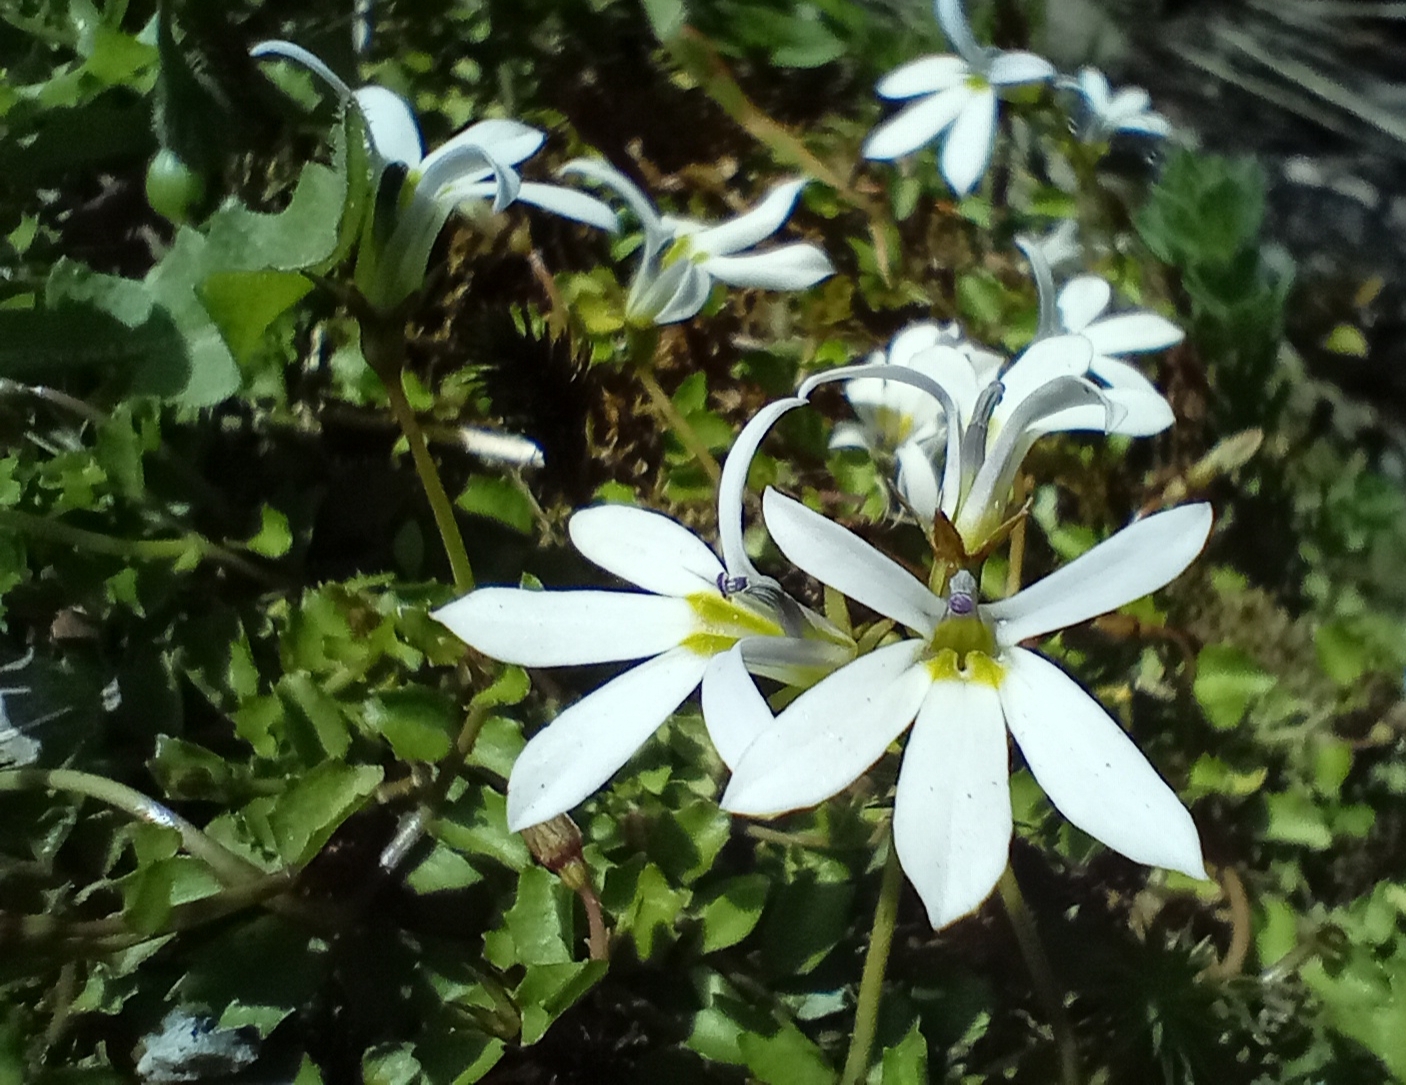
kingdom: Plantae
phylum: Tracheophyta
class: Magnoliopsida
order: Asterales
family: Campanulaceae
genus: Lobelia
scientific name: Lobelia angulata
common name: Lawn lobelia
